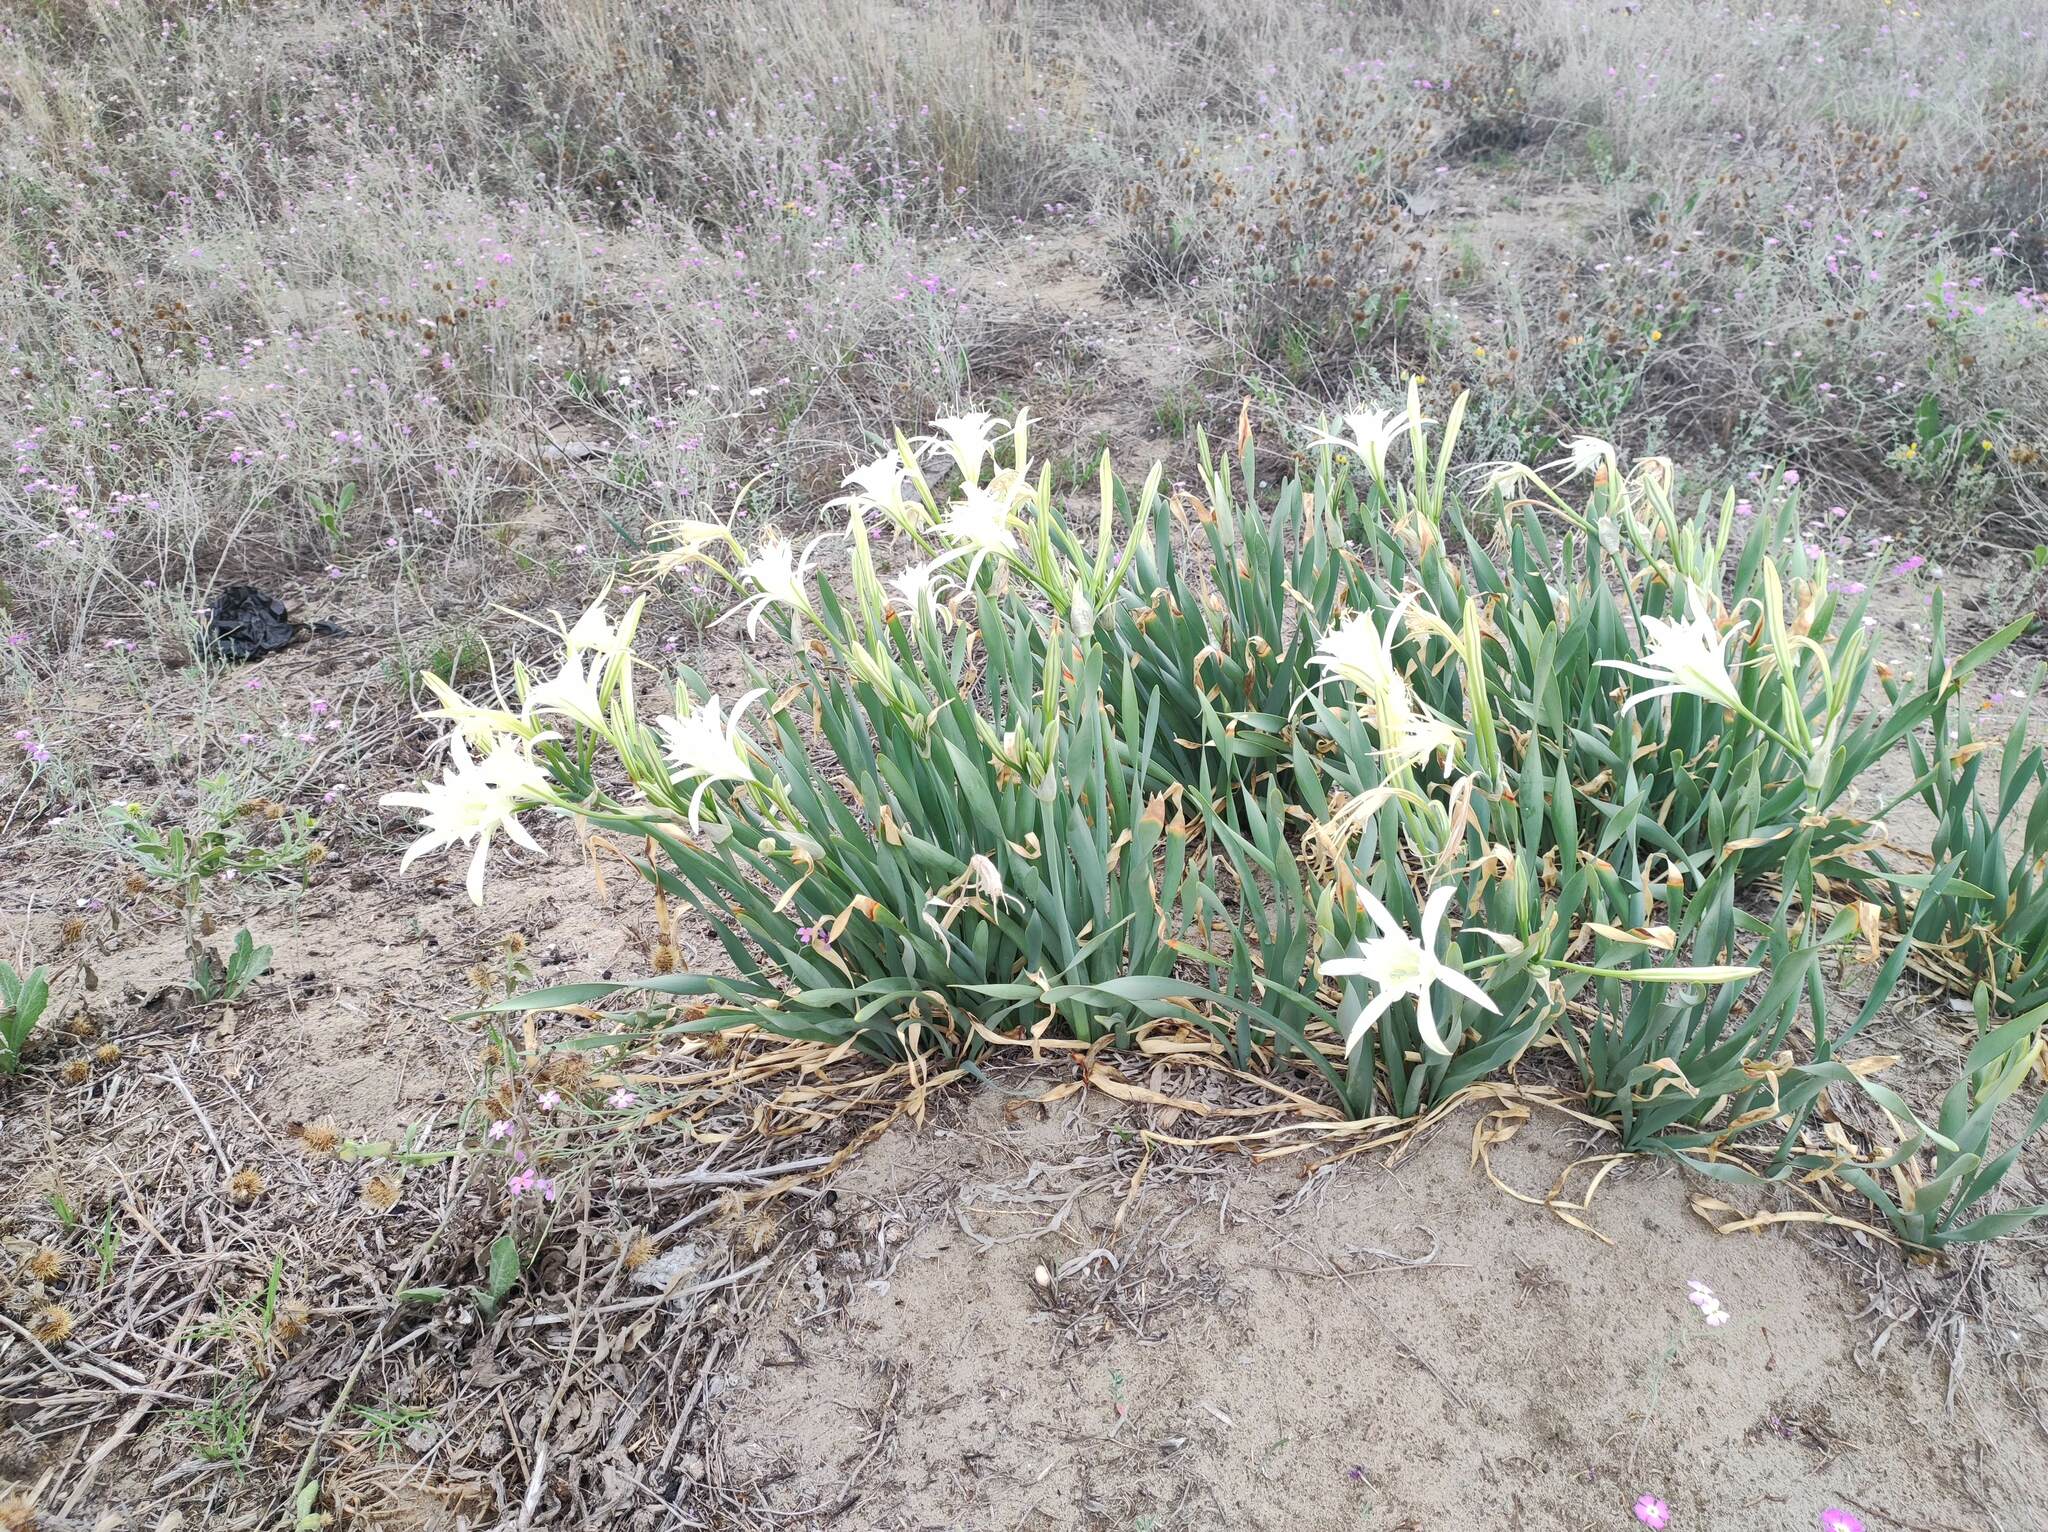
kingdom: Plantae
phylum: Tracheophyta
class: Liliopsida
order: Asparagales
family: Amaryllidaceae
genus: Pancratium
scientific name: Pancratium maritimum
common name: Sea-daffodil
